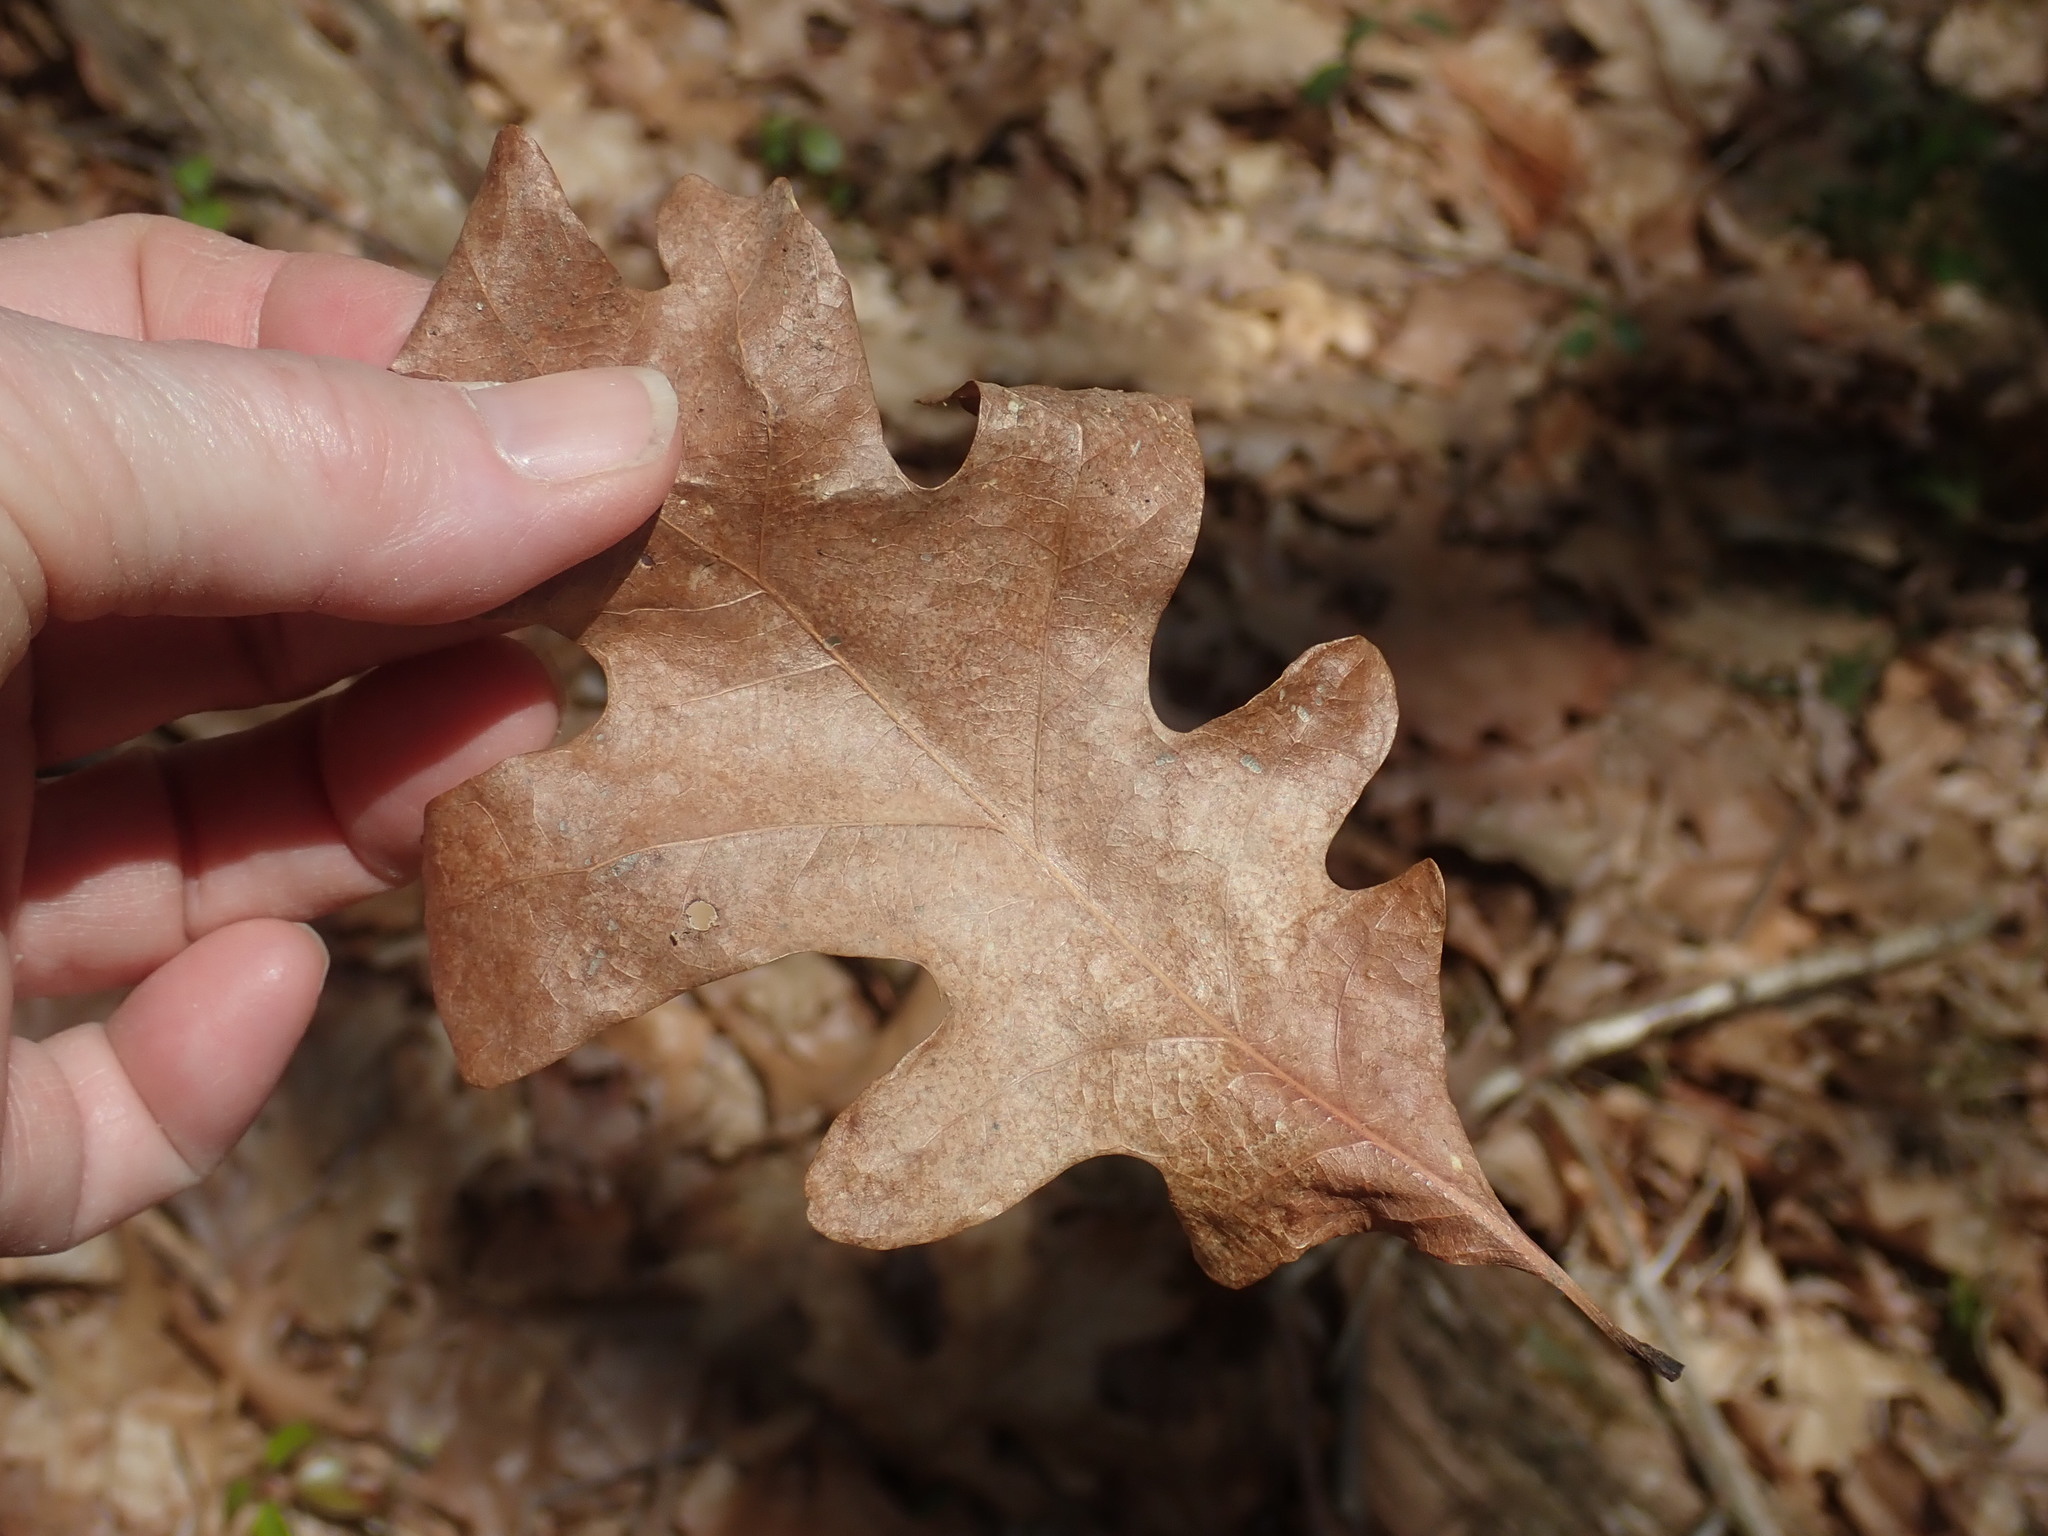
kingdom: Plantae
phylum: Tracheophyta
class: Magnoliopsida
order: Fagales
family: Fagaceae
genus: Quercus
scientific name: Quercus alba
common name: White oak
